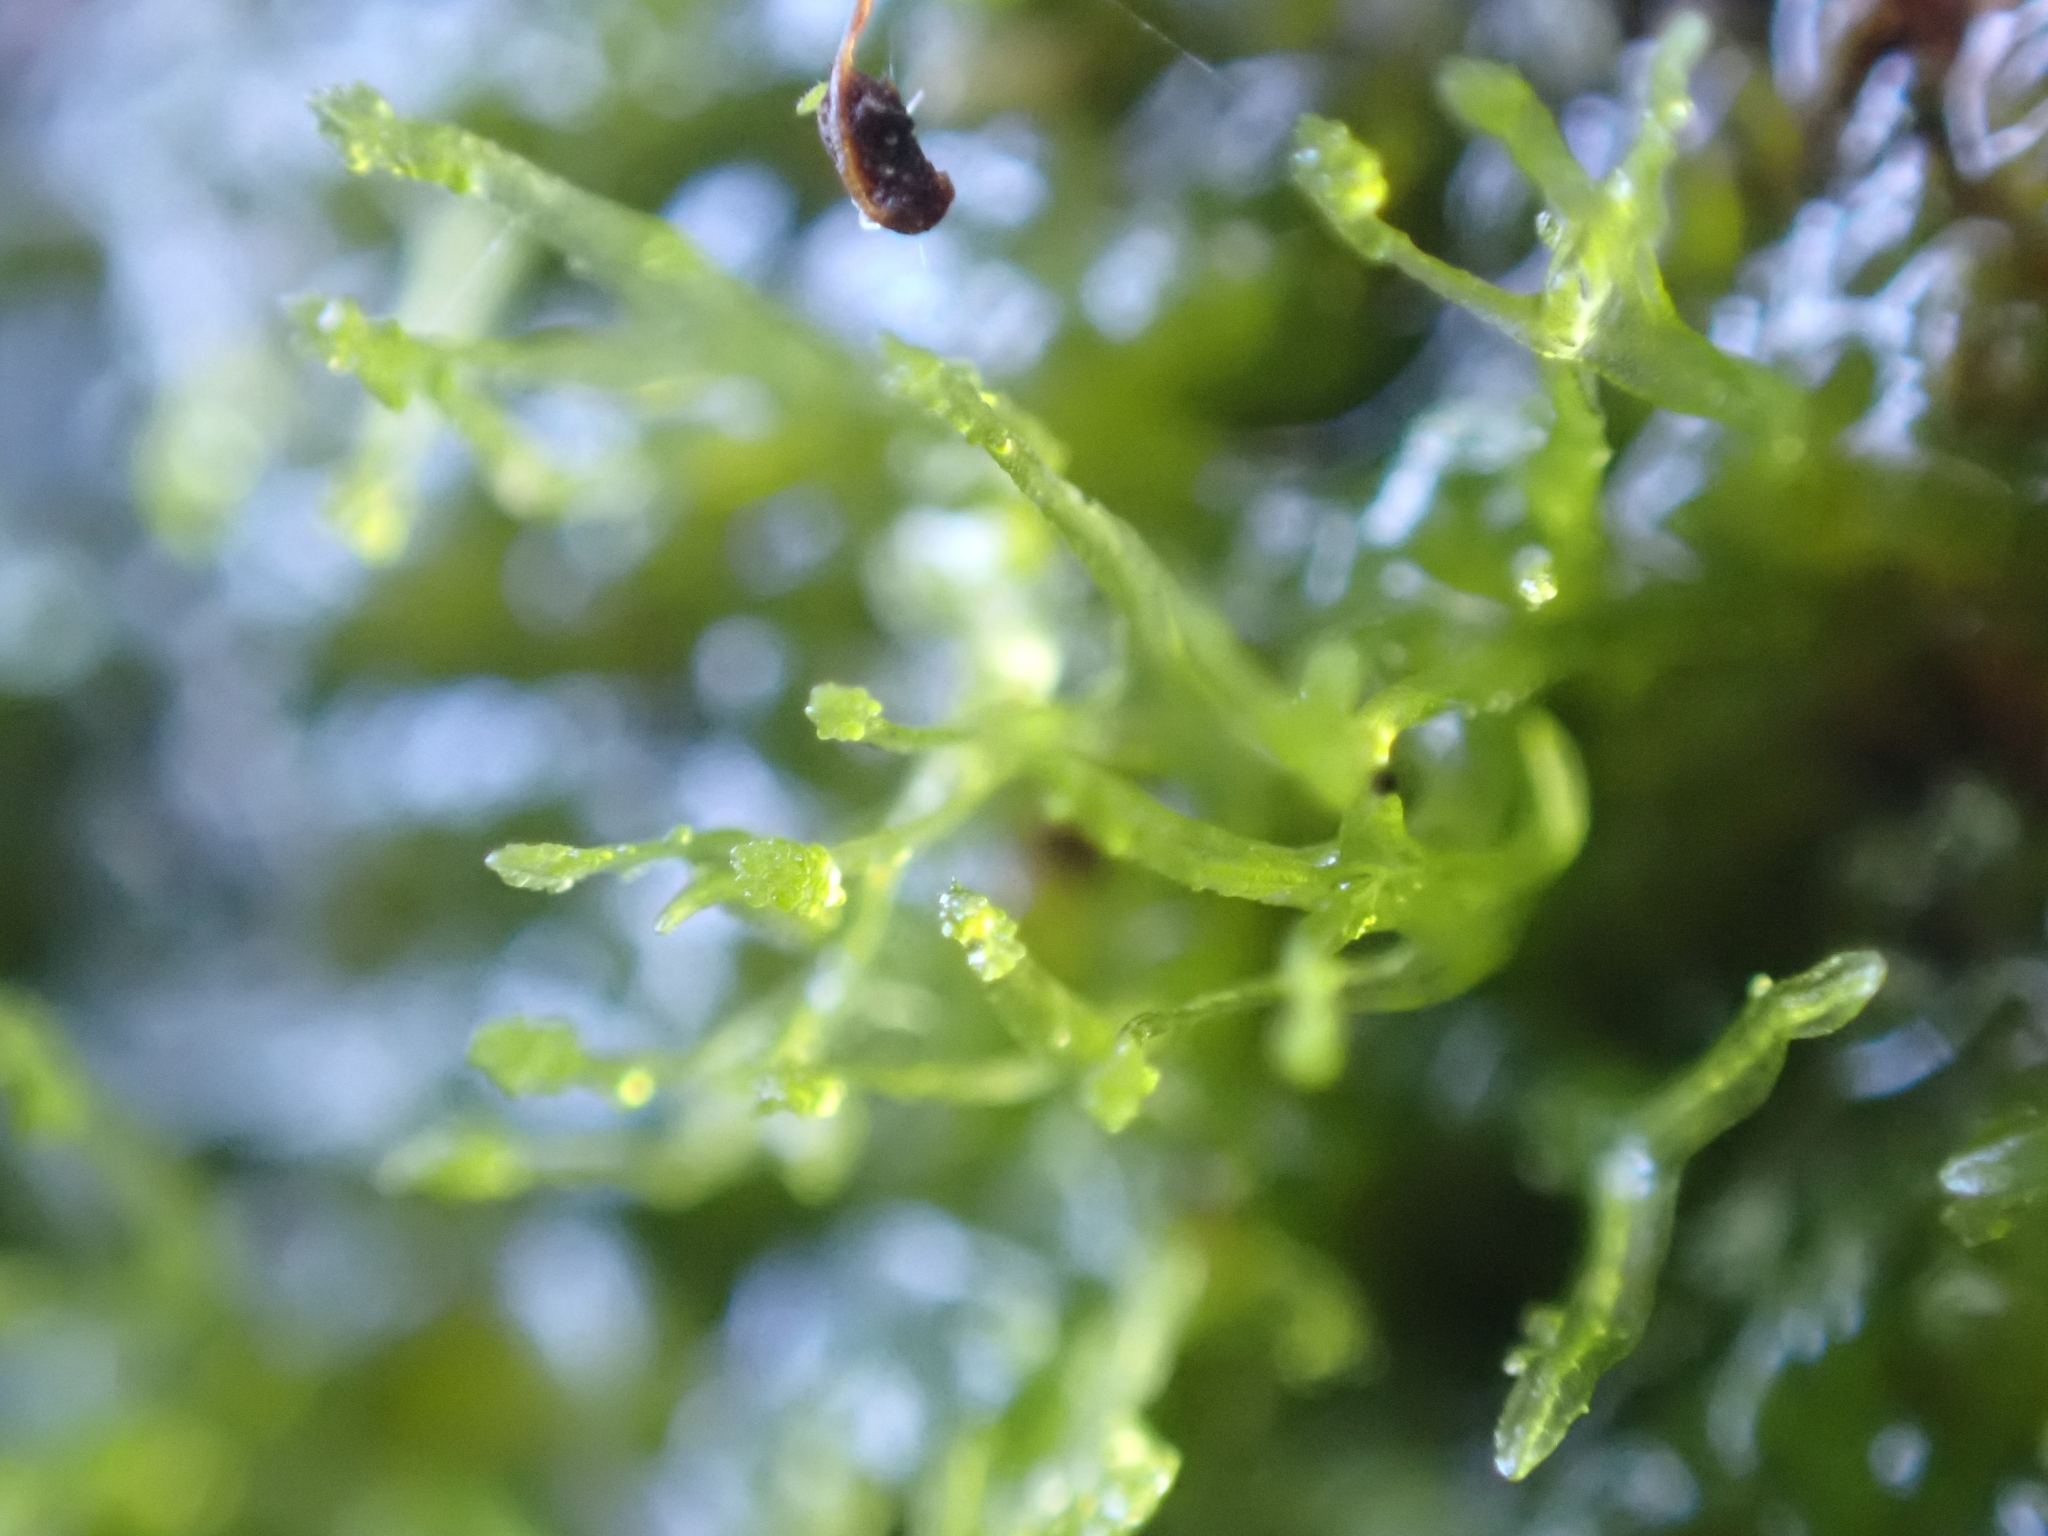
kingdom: Plantae
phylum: Marchantiophyta
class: Jungermanniopsida
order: Metzgeriales
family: Metzgeriaceae
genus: Metzgeria
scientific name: Metzgeria violacea
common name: Blueish veilwort
